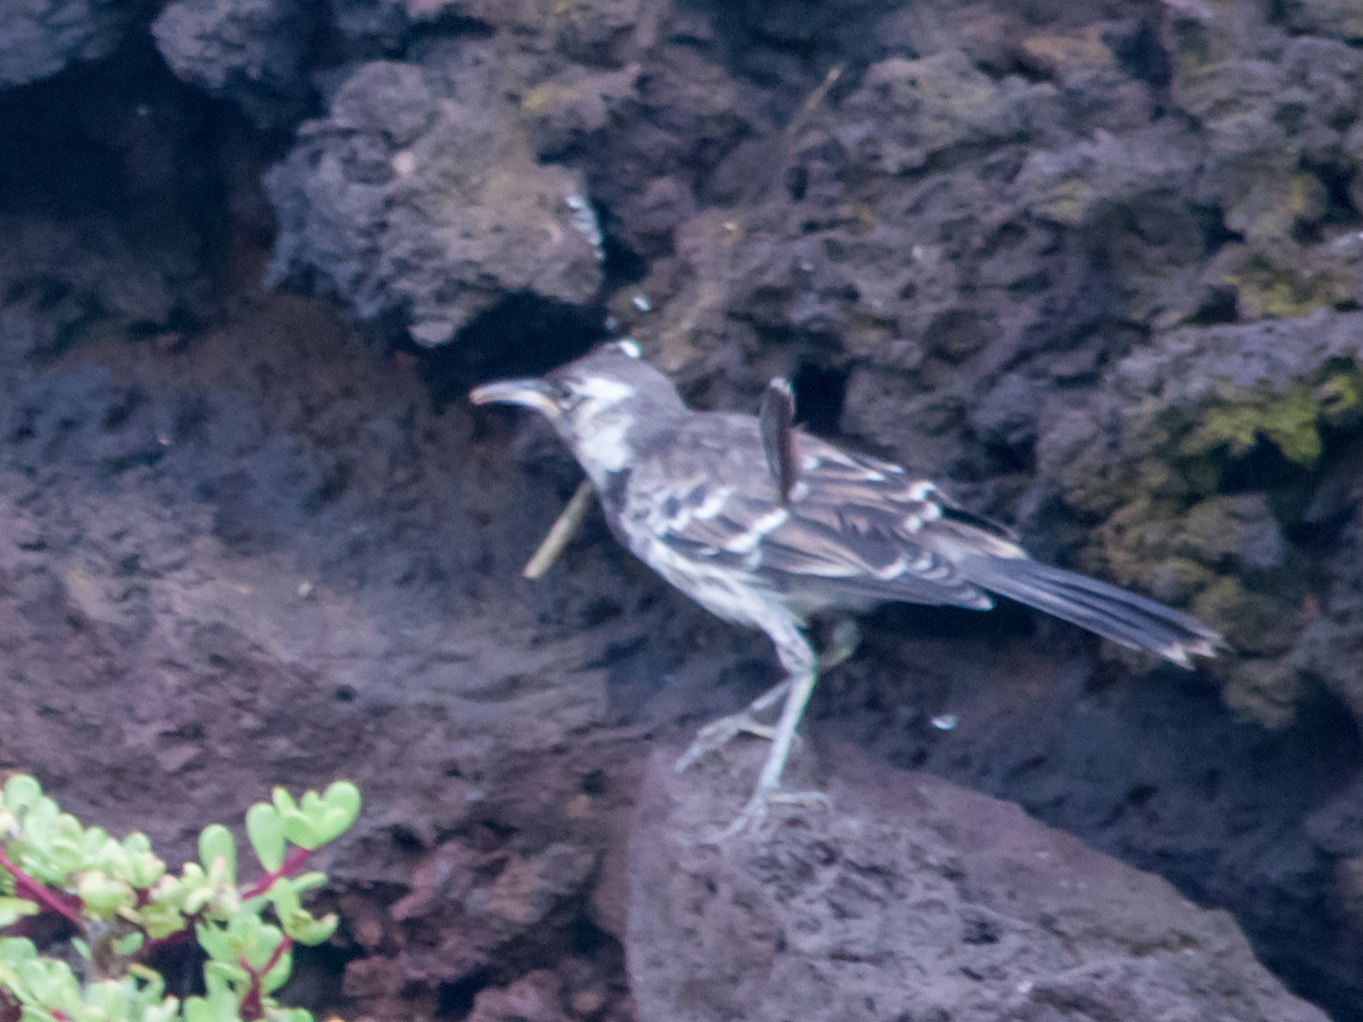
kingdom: Animalia
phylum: Chordata
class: Aves
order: Passeriformes
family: Mimidae
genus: Mimus
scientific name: Mimus trifasciatus
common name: Floreana mockingbird
